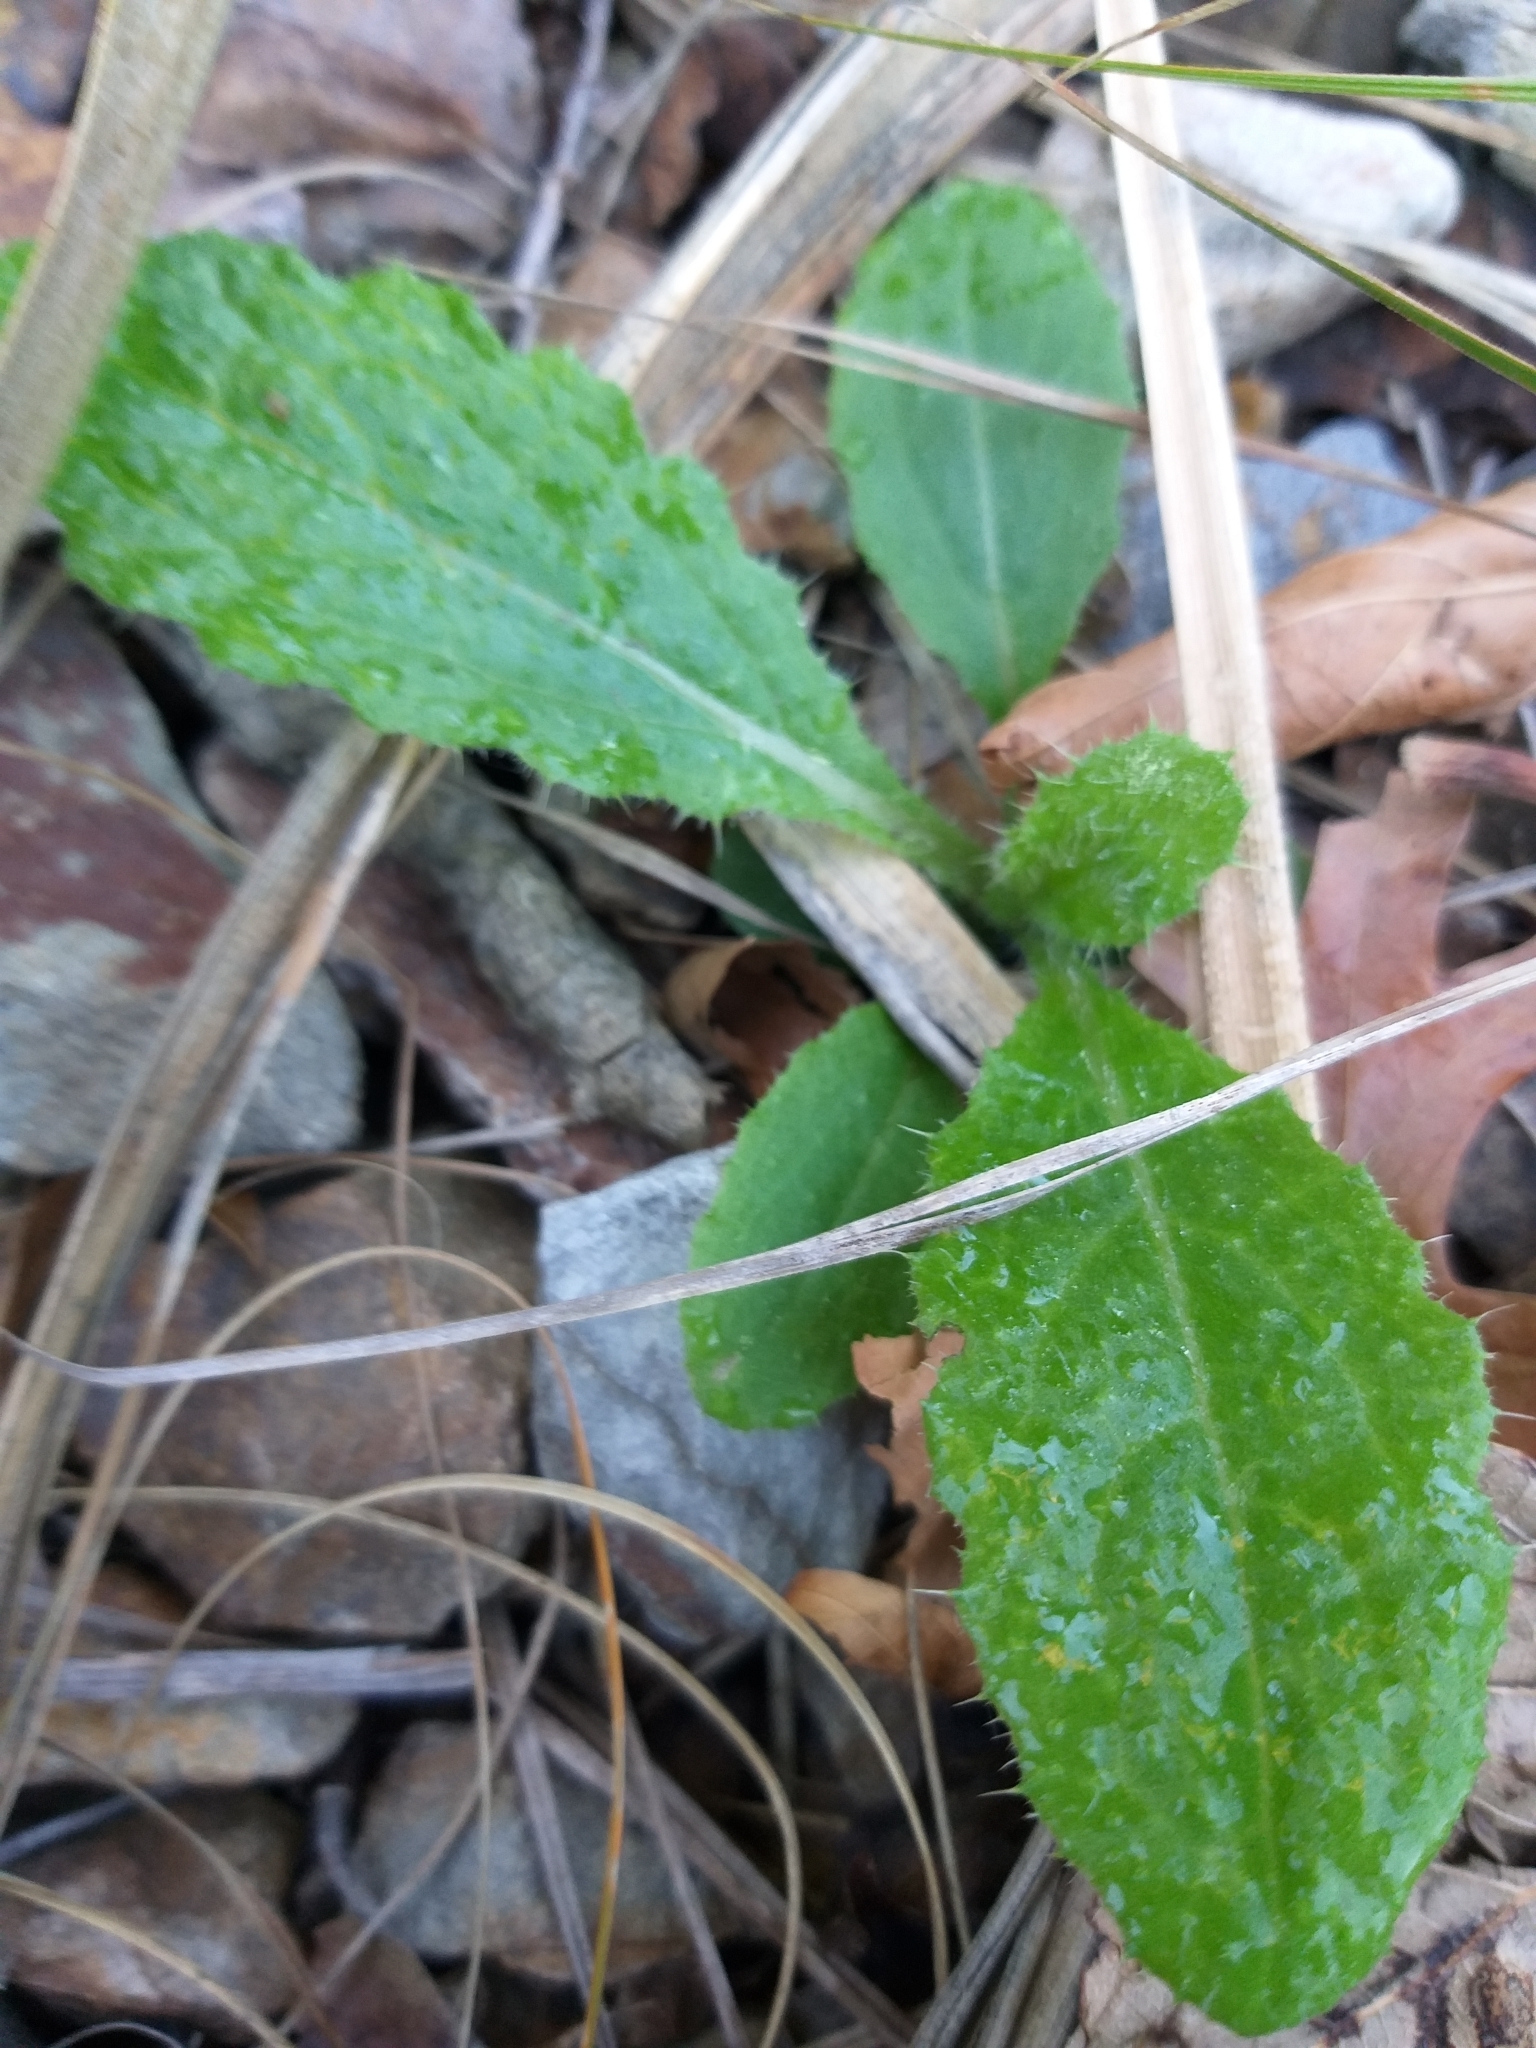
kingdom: Plantae
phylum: Tracheophyta
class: Magnoliopsida
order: Asterales
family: Asteraceae
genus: Cirsium
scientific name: Cirsium vulgare
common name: Bull thistle
